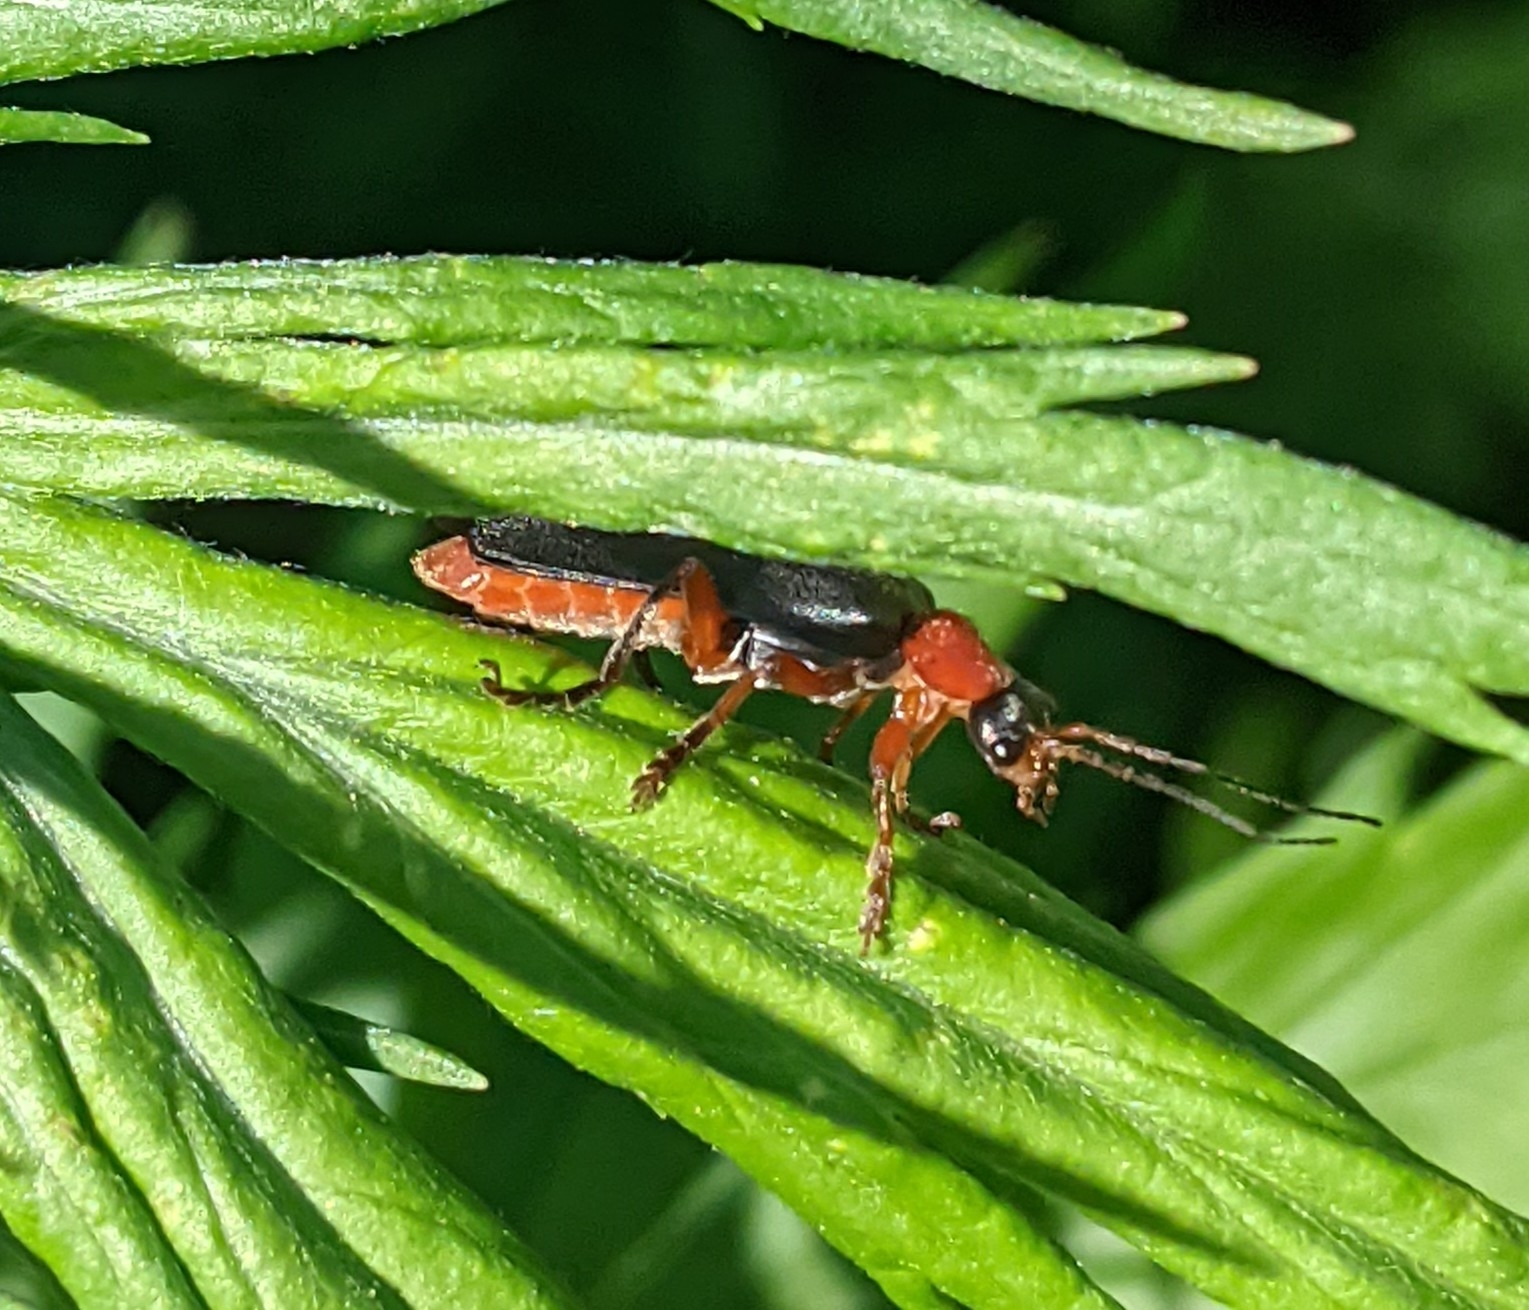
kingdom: Animalia
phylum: Arthropoda
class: Insecta
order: Coleoptera
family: Cantharidae
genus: Cantharis
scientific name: Cantharis pellucida
